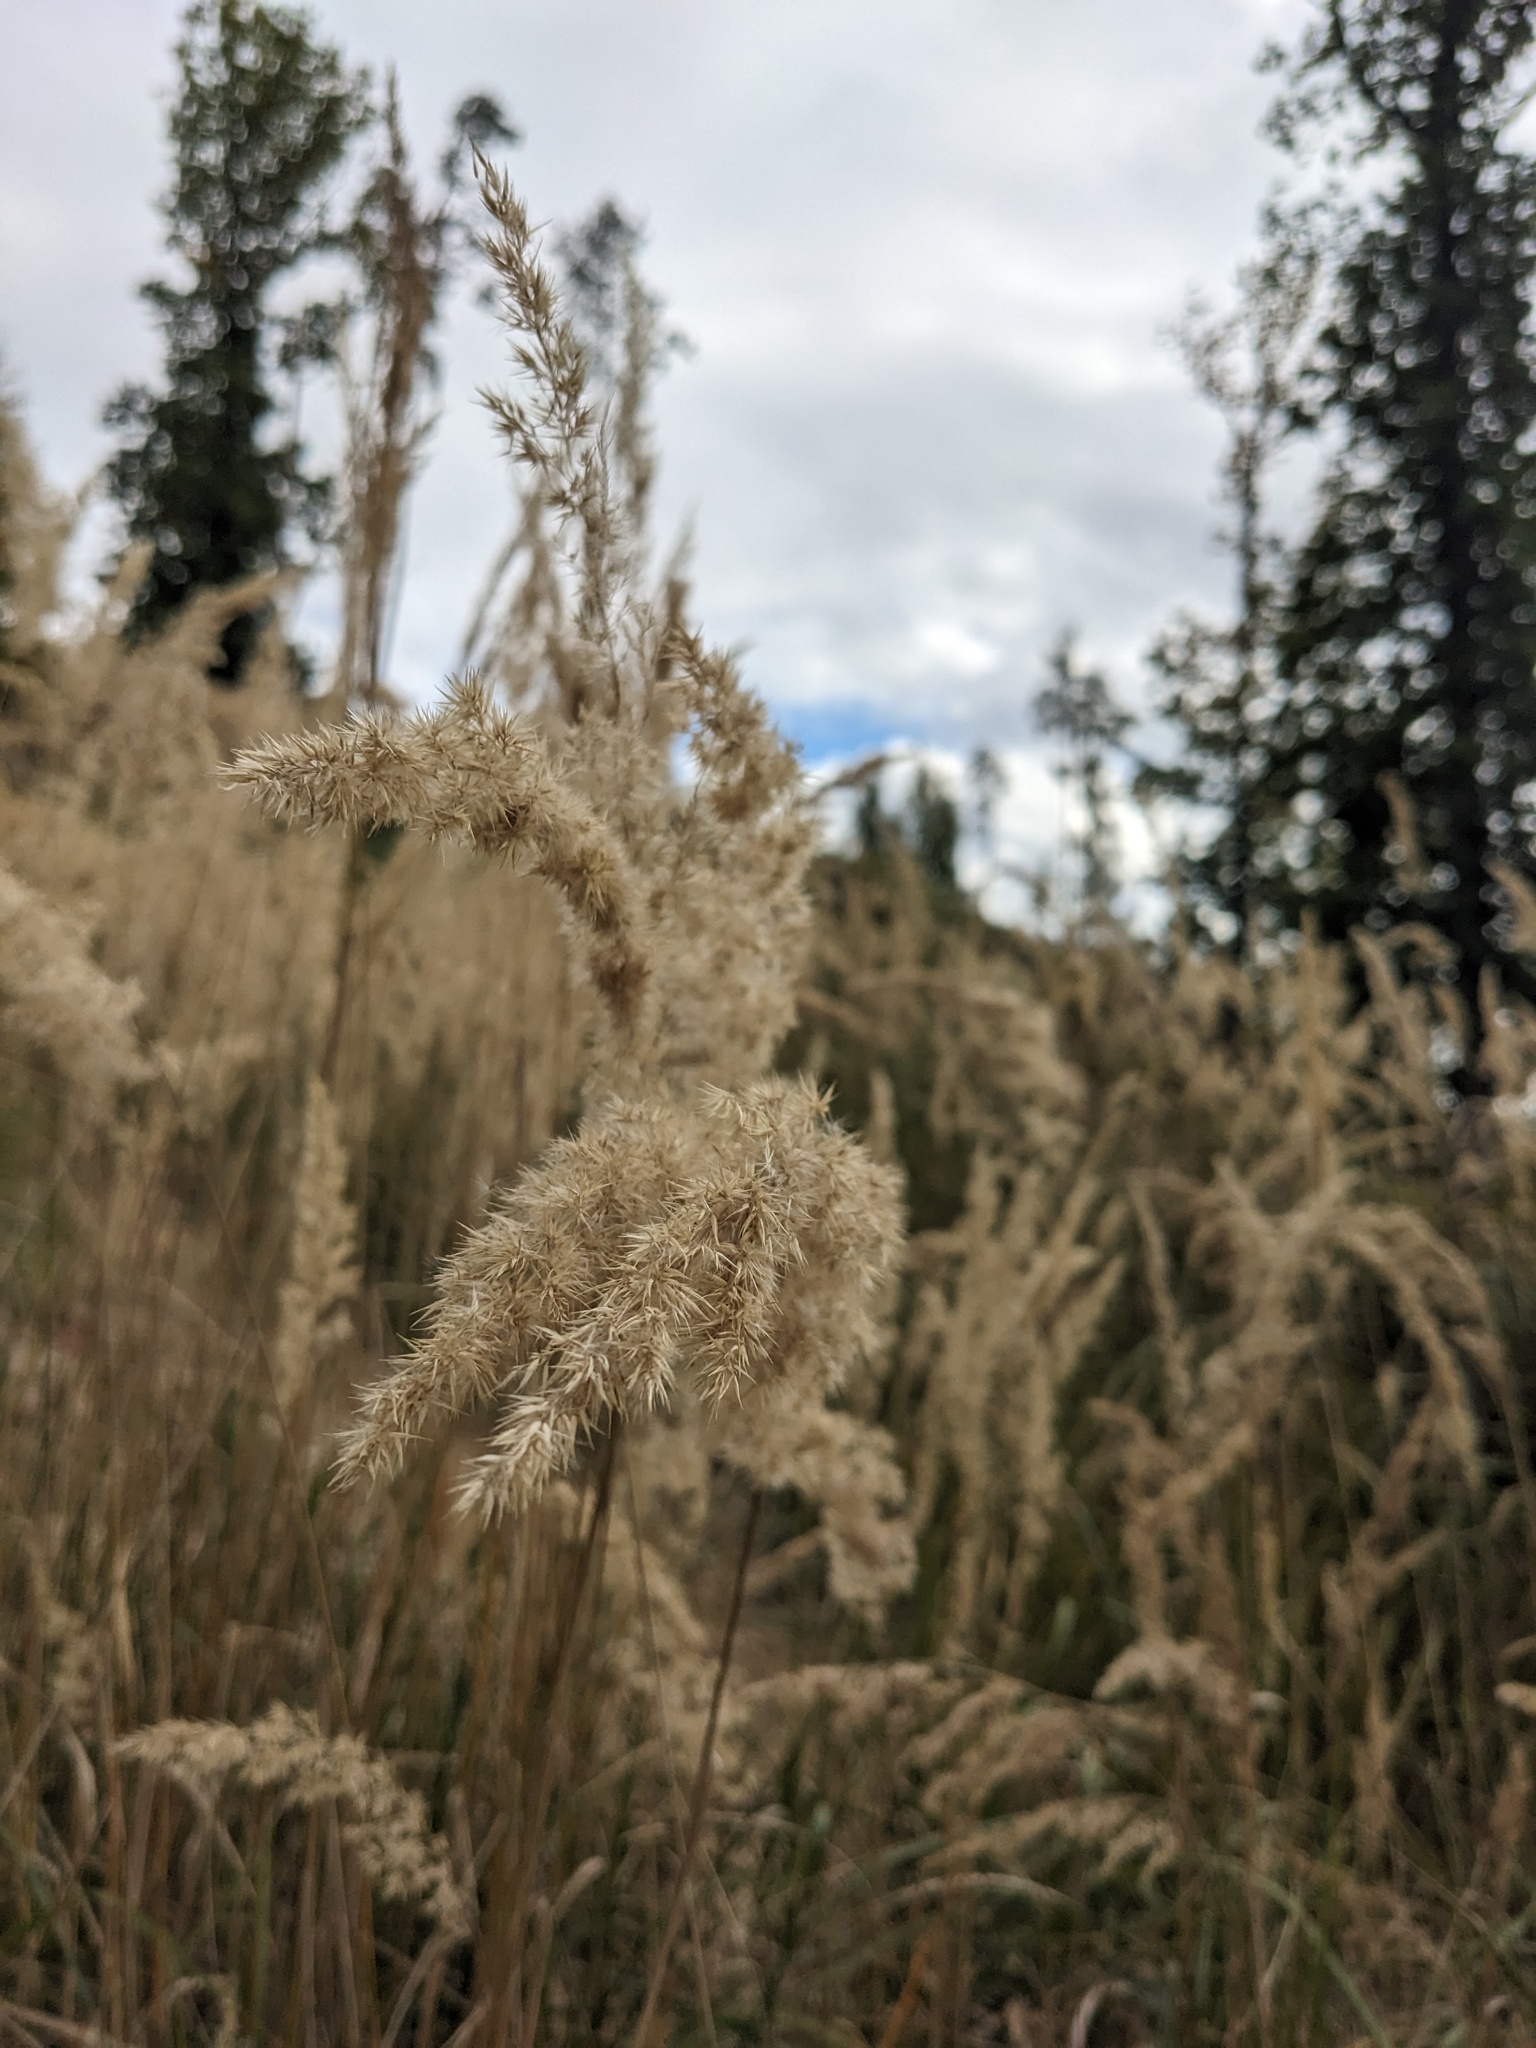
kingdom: Plantae
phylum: Tracheophyta
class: Liliopsida
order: Poales
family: Poaceae
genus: Calamagrostis
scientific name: Calamagrostis epigejos
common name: Wood small-reed
